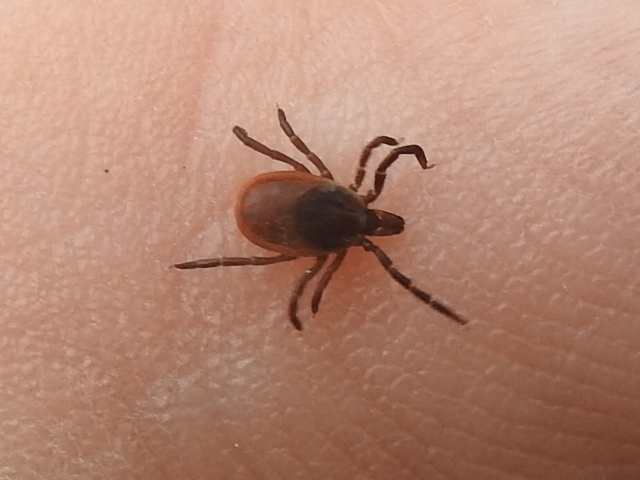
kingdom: Animalia
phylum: Arthropoda
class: Arachnida
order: Ixodida
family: Ixodidae
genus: Ixodes
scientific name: Ixodes scapularis
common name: Black legged tick
